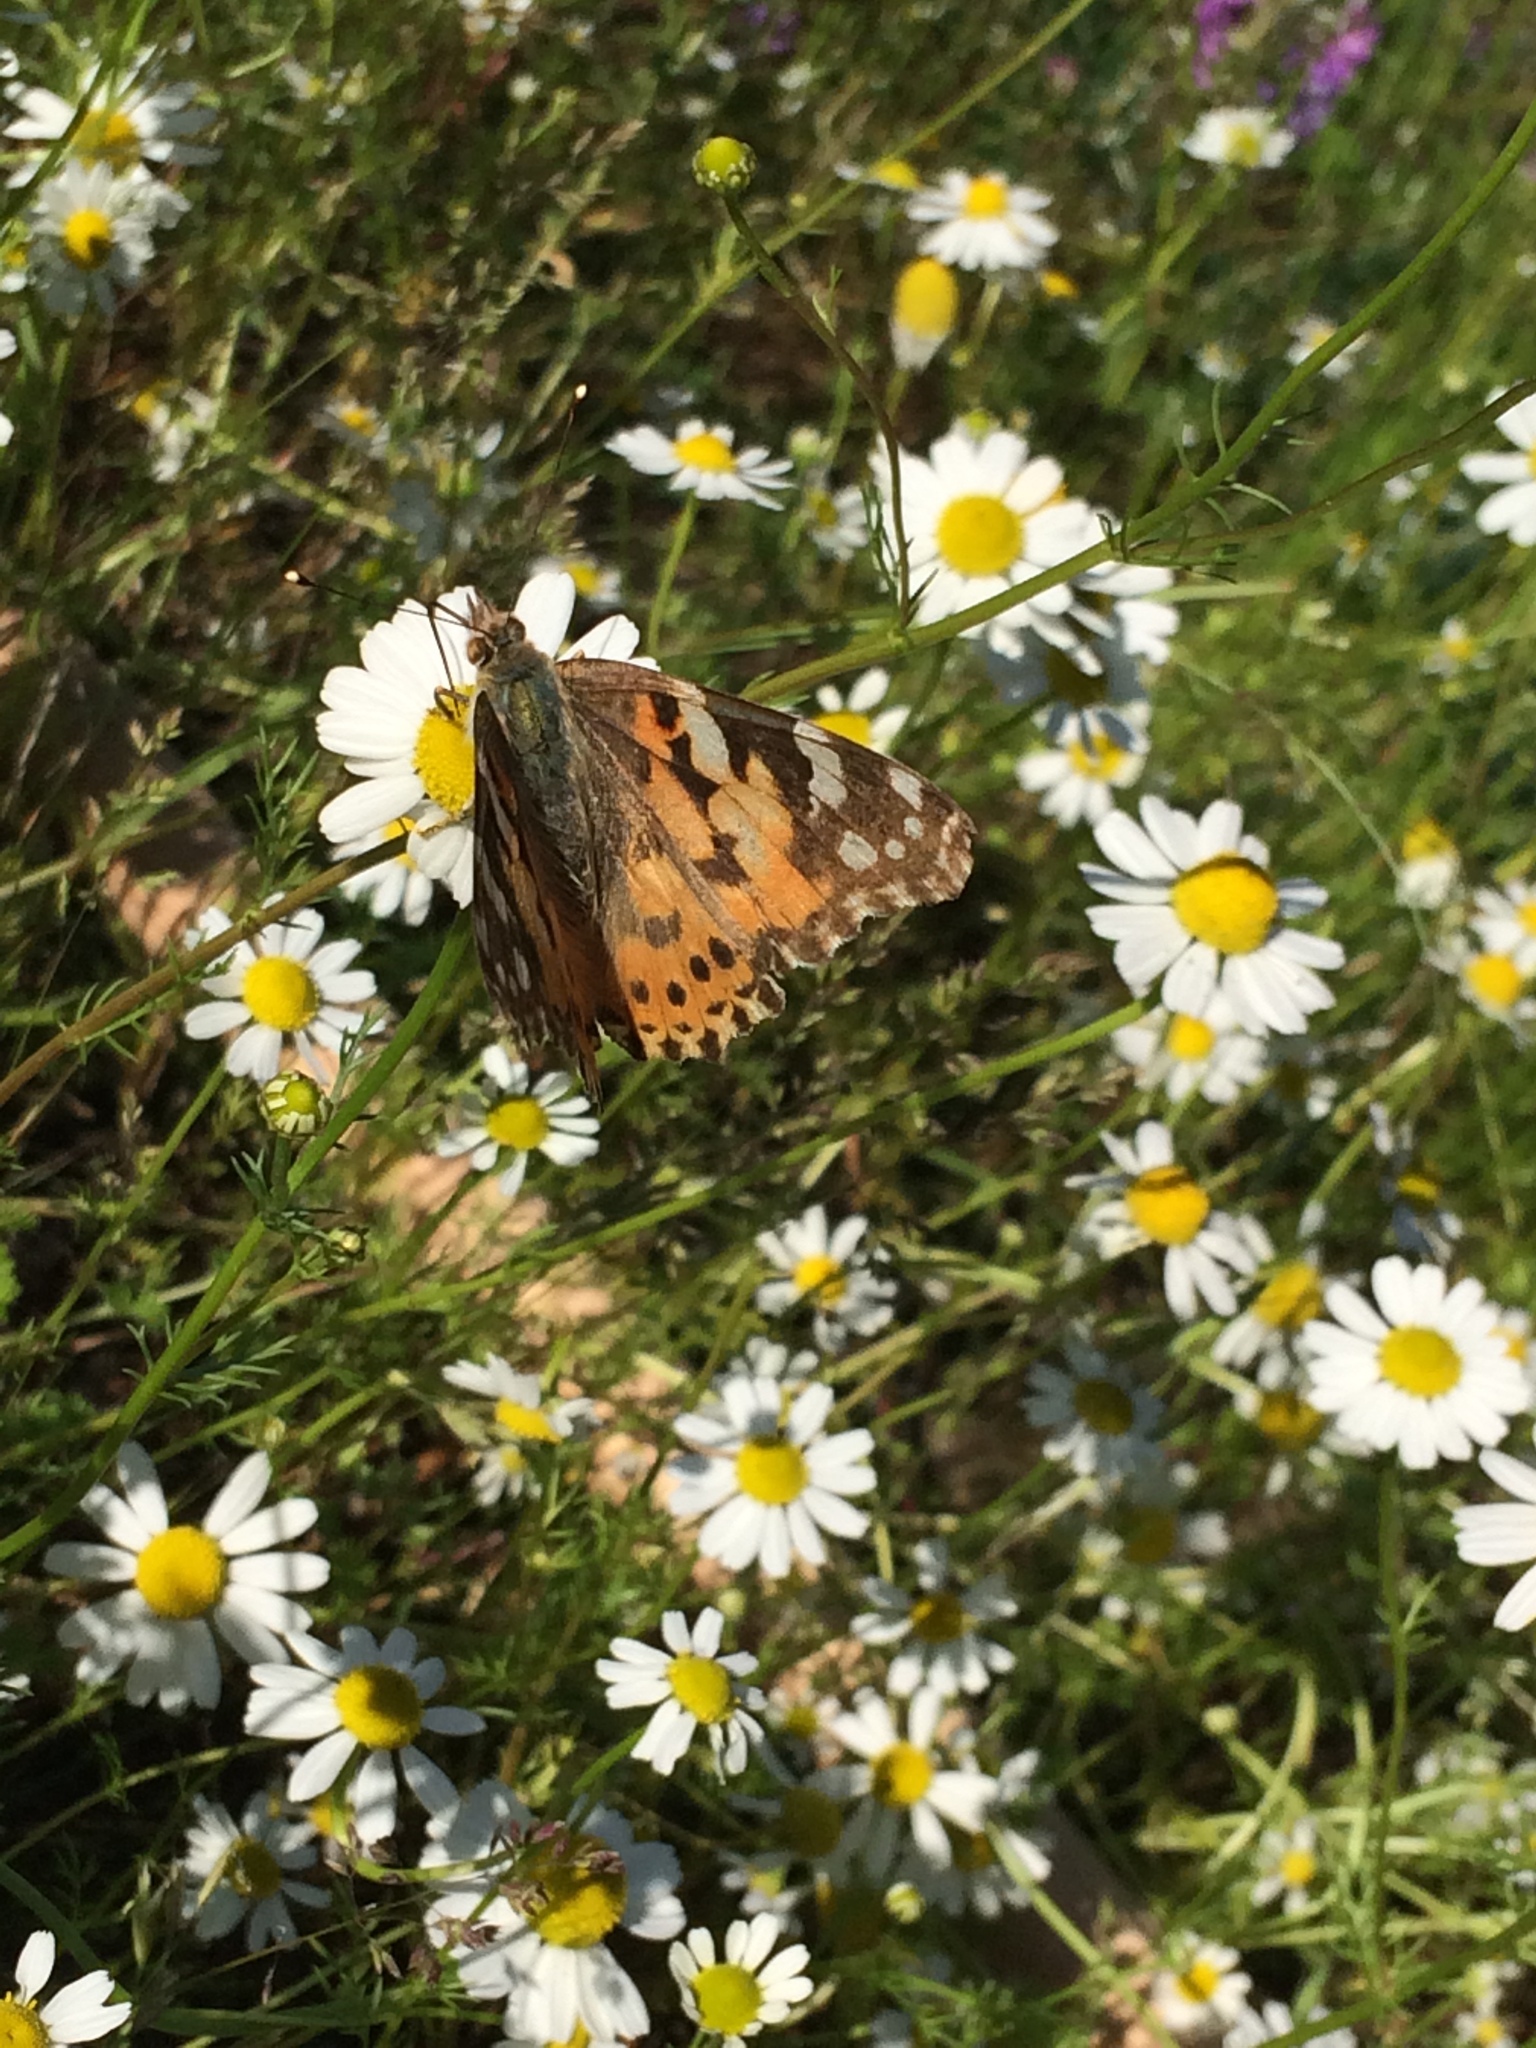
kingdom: Animalia
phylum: Arthropoda
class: Insecta
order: Lepidoptera
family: Nymphalidae
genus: Vanessa
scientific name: Vanessa cardui
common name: Painted lady
